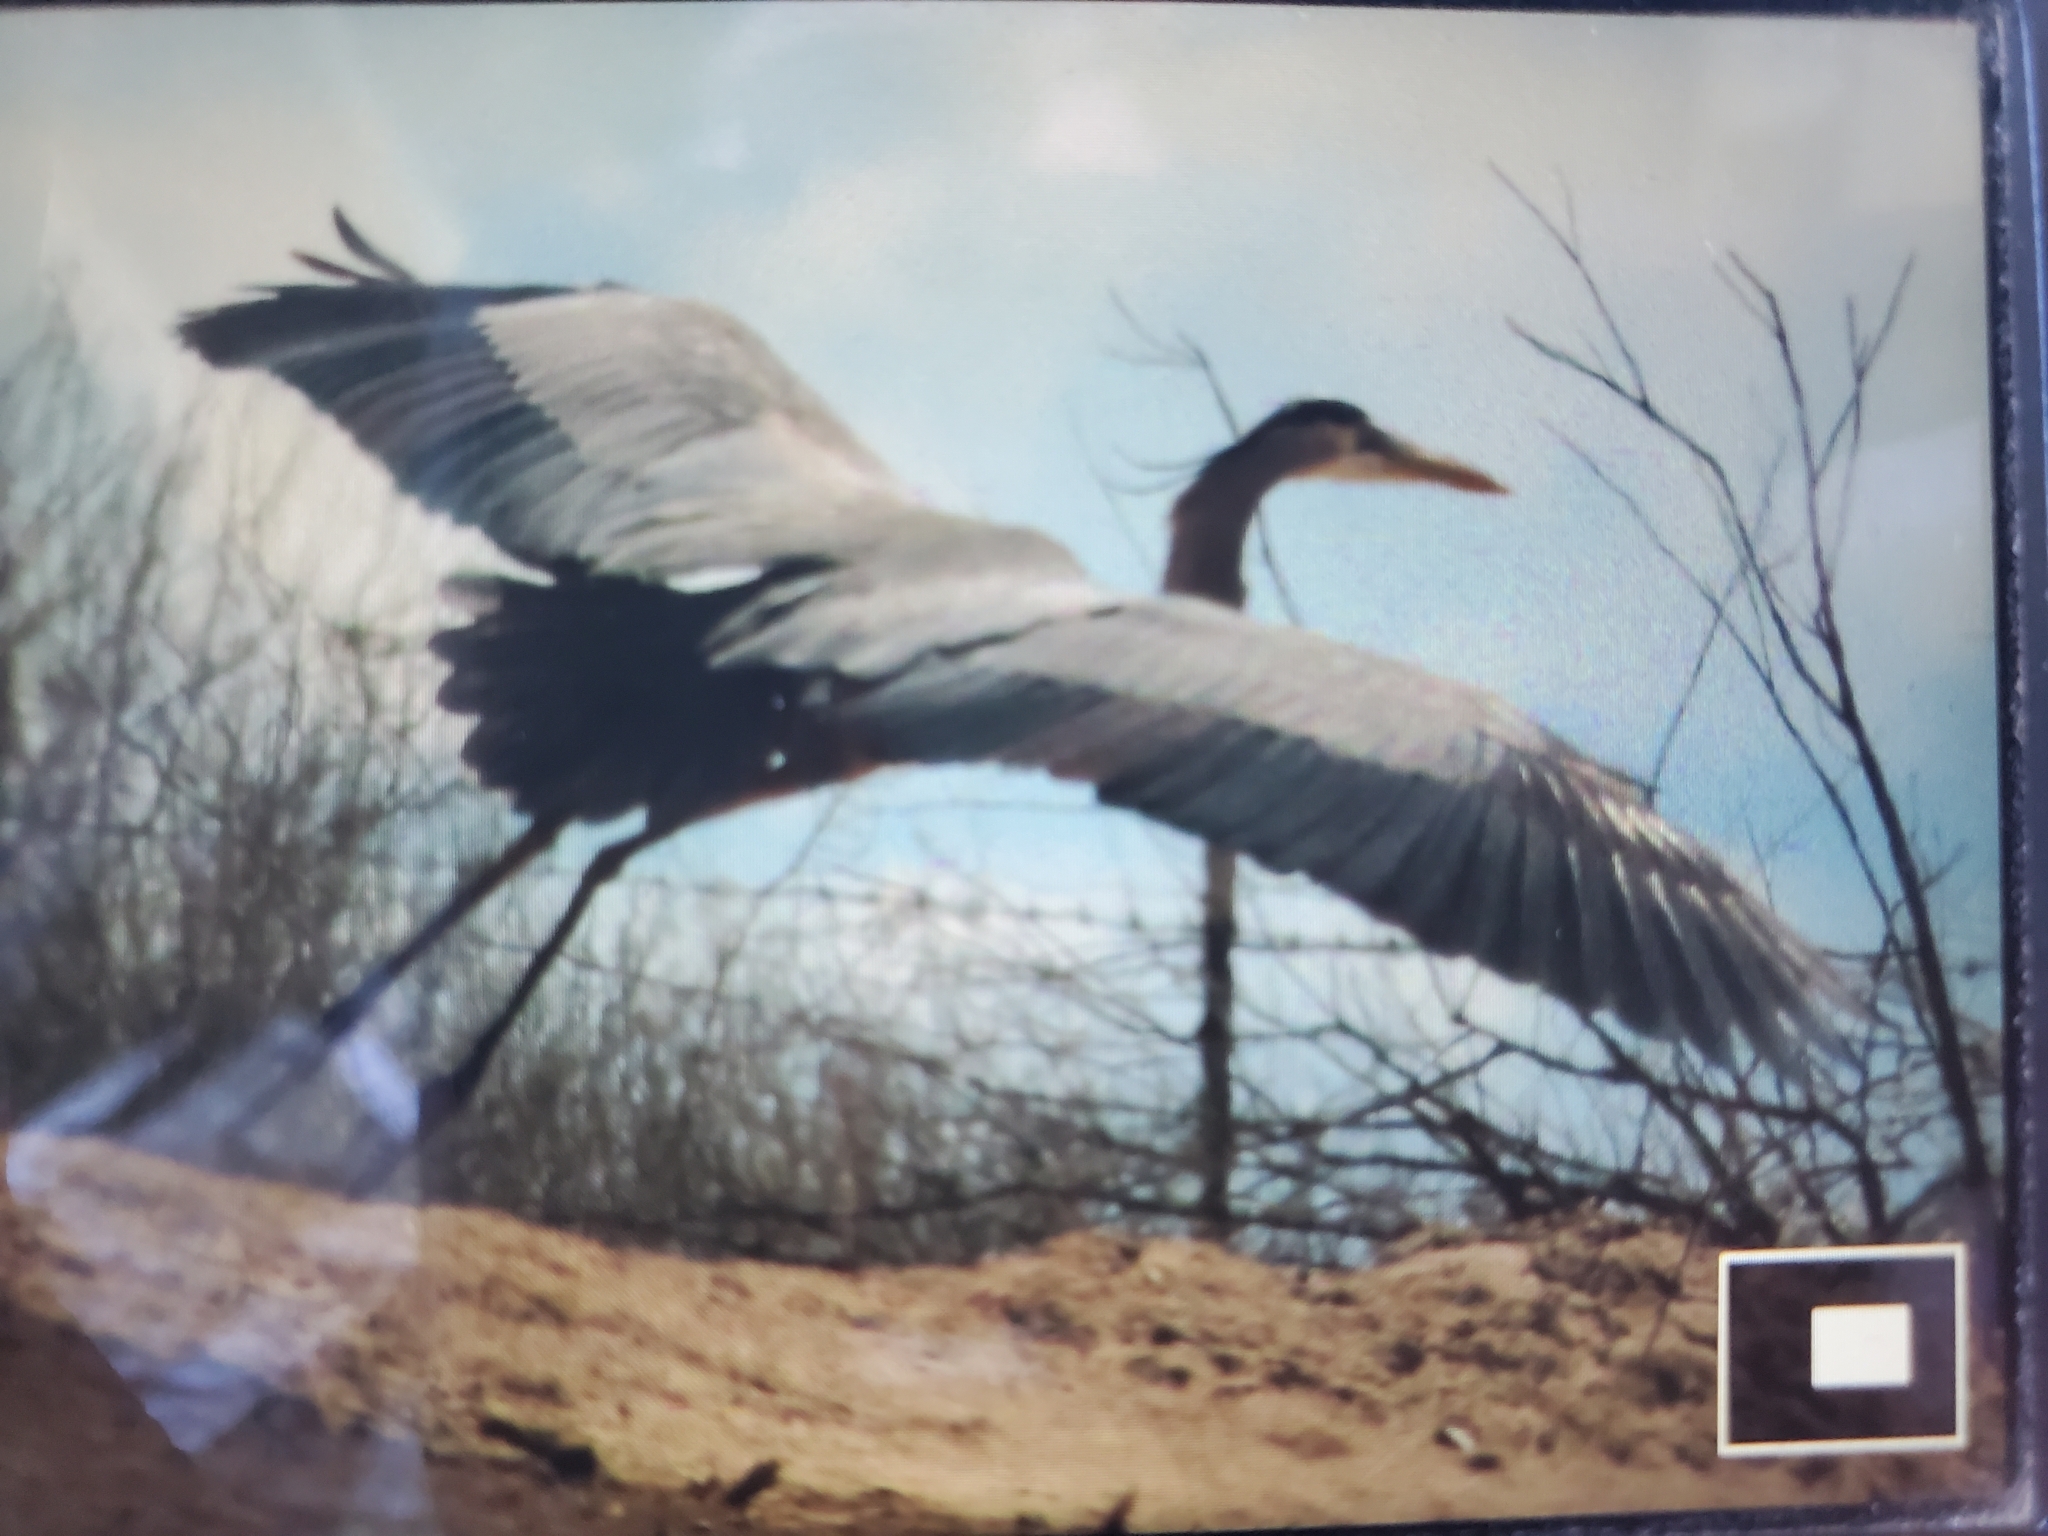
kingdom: Animalia
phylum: Chordata
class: Aves
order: Pelecaniformes
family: Ardeidae
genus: Ardea
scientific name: Ardea herodias
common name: Great blue heron
